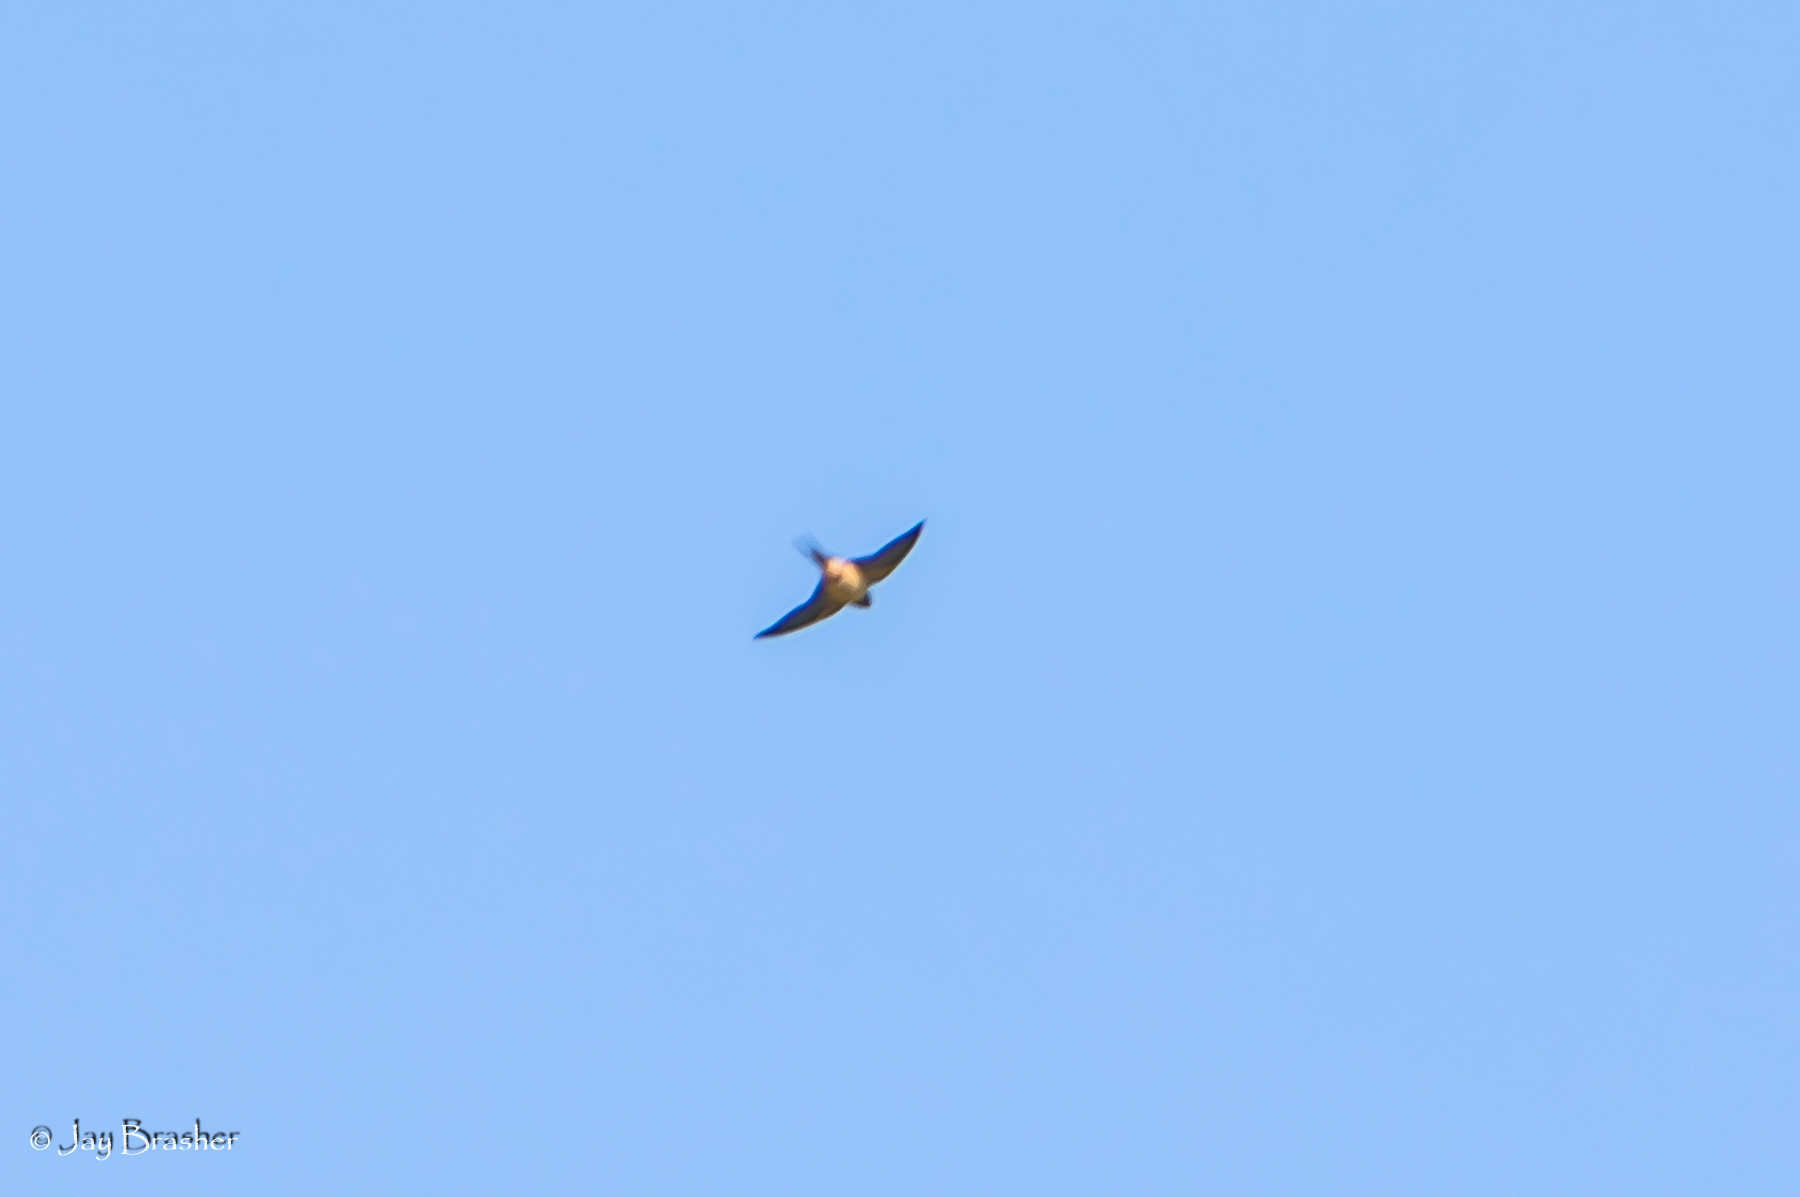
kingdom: Animalia
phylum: Chordata
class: Aves
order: Passeriformes
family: Hirundinidae
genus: Hirundo
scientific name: Hirundo rustica
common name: Barn swallow
